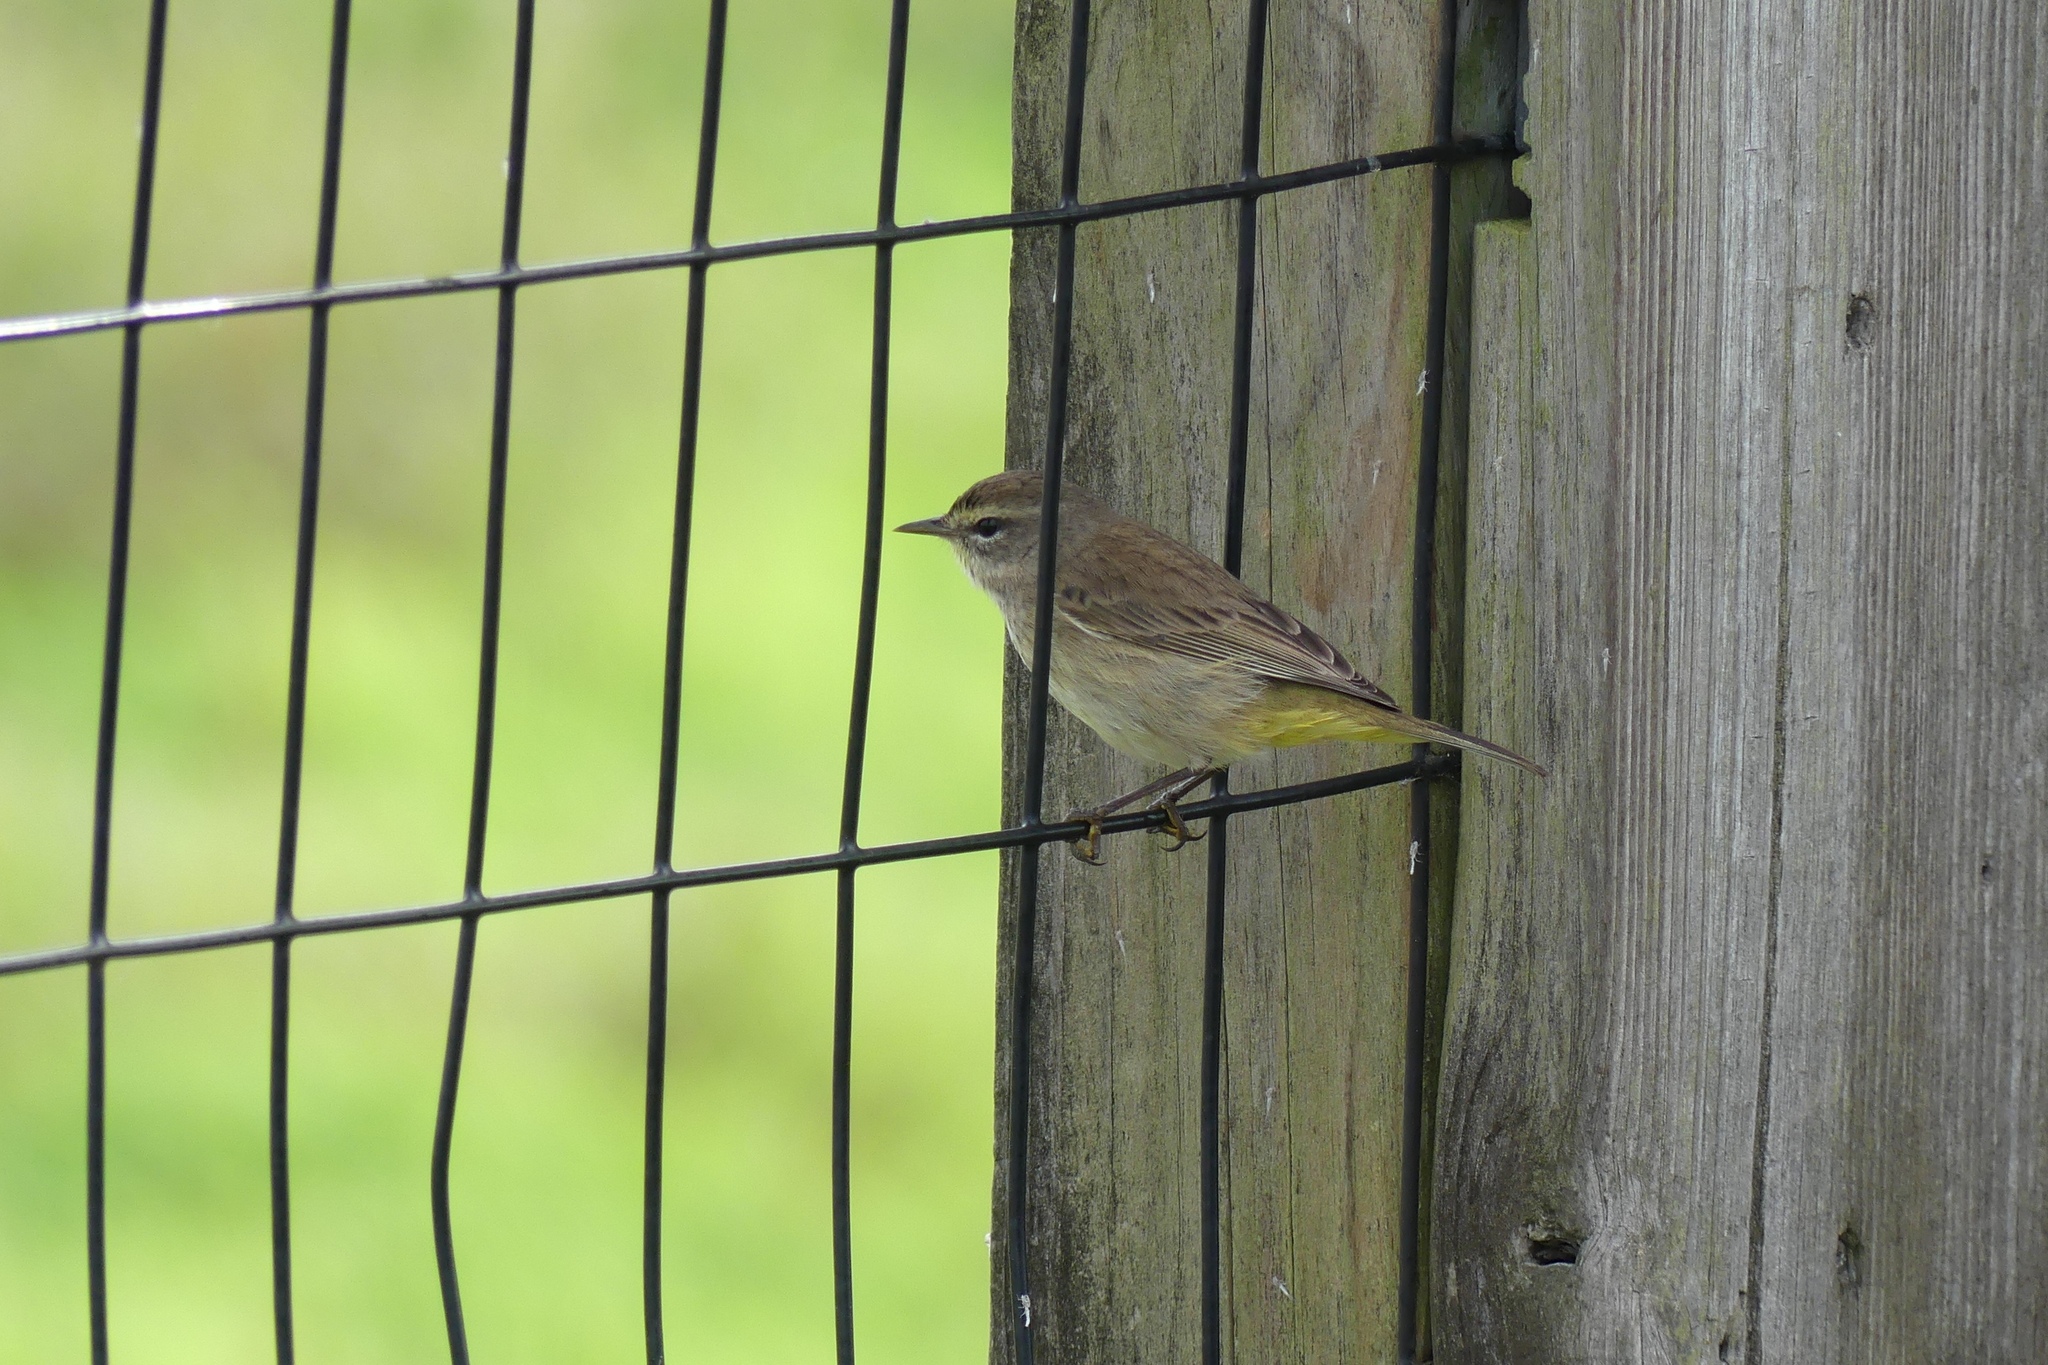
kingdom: Animalia
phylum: Chordata
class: Aves
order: Passeriformes
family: Parulidae
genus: Setophaga
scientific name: Setophaga palmarum
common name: Palm warbler
